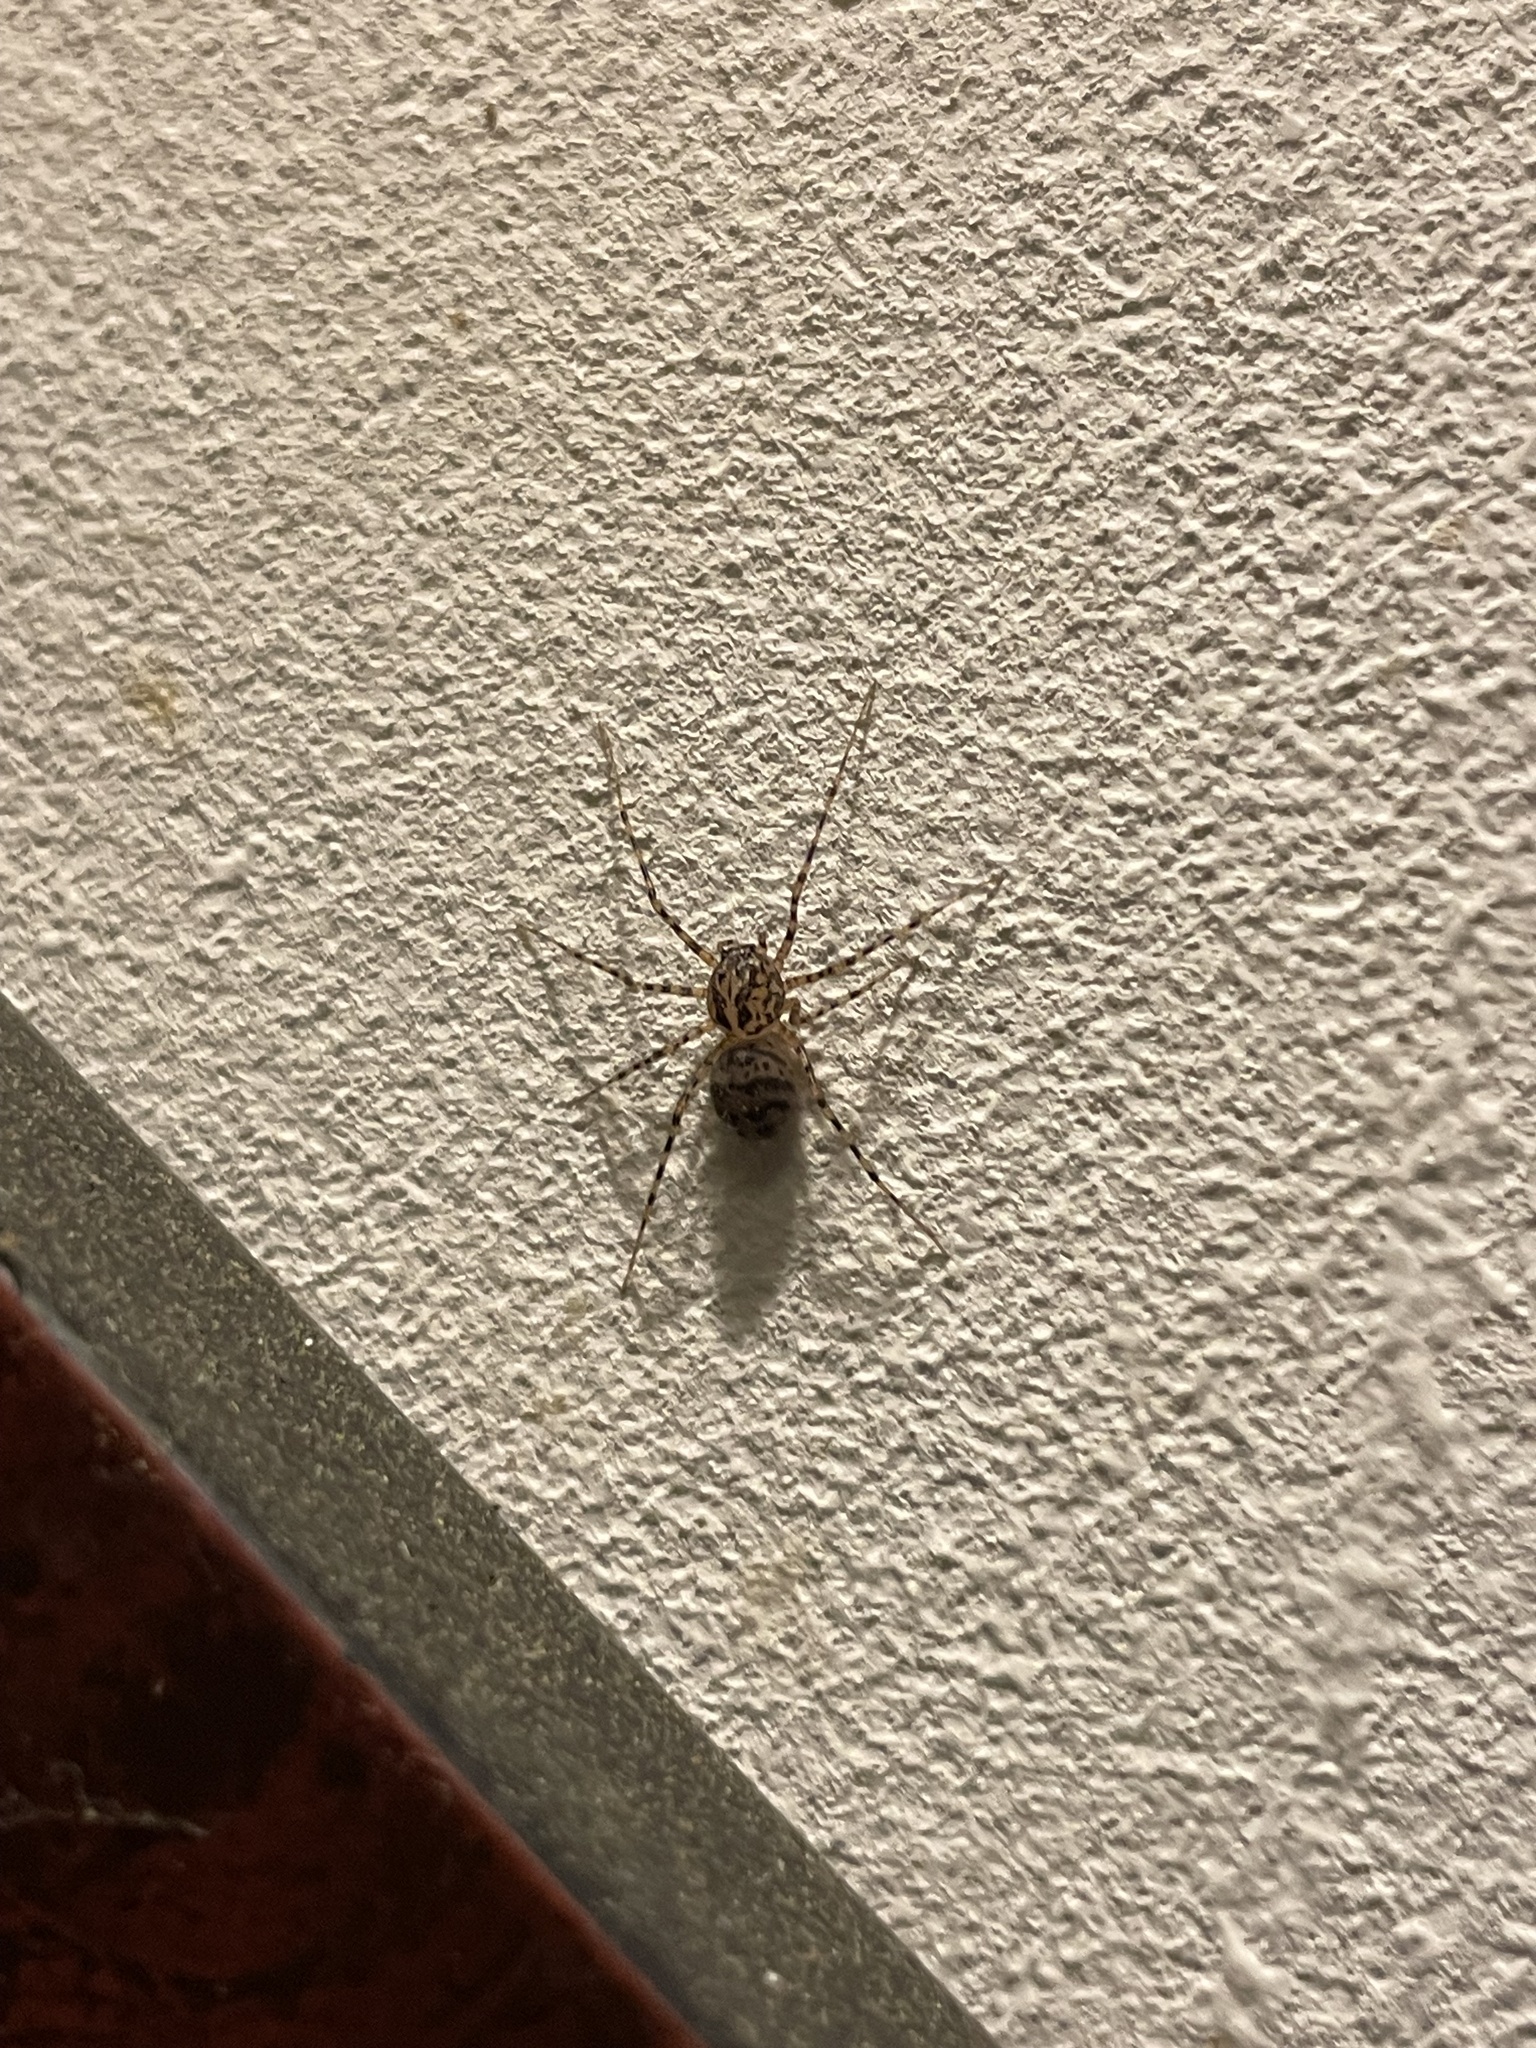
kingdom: Animalia
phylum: Arthropoda
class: Arachnida
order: Araneae
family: Scytodidae
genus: Scytodes
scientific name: Scytodes thoracica
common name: Spitting spider
